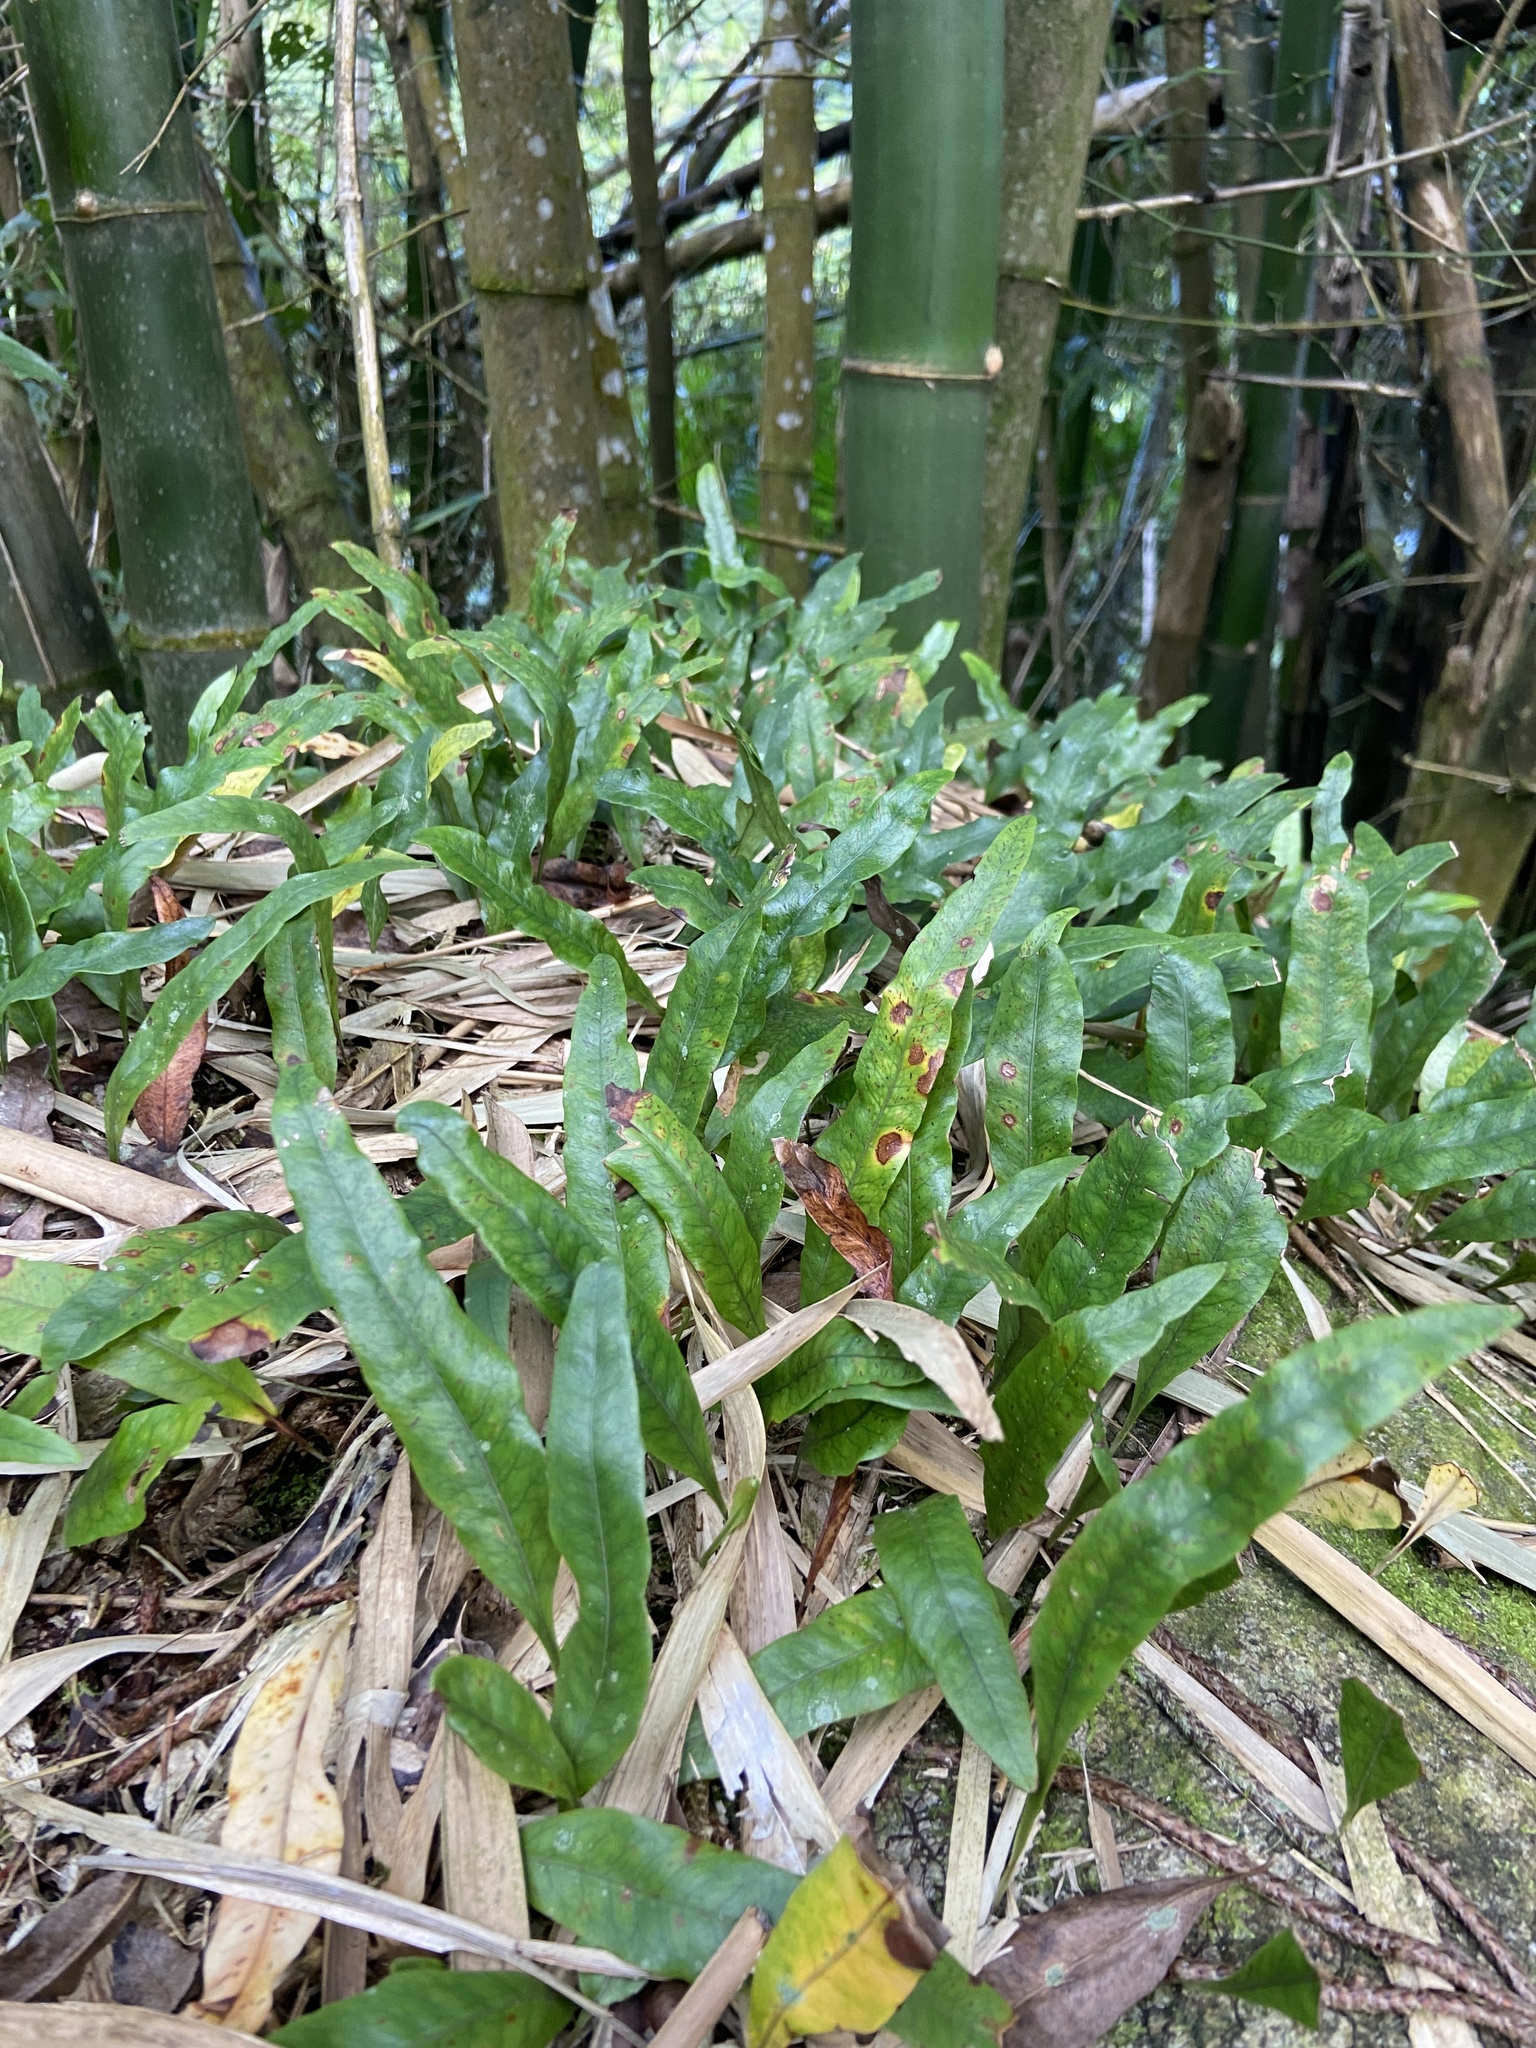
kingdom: Plantae
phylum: Tracheophyta
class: Polypodiopsida
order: Polypodiales
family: Polypodiaceae
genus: Microgramma
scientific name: Microgramma lycopodioides
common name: Bastard catclaw
